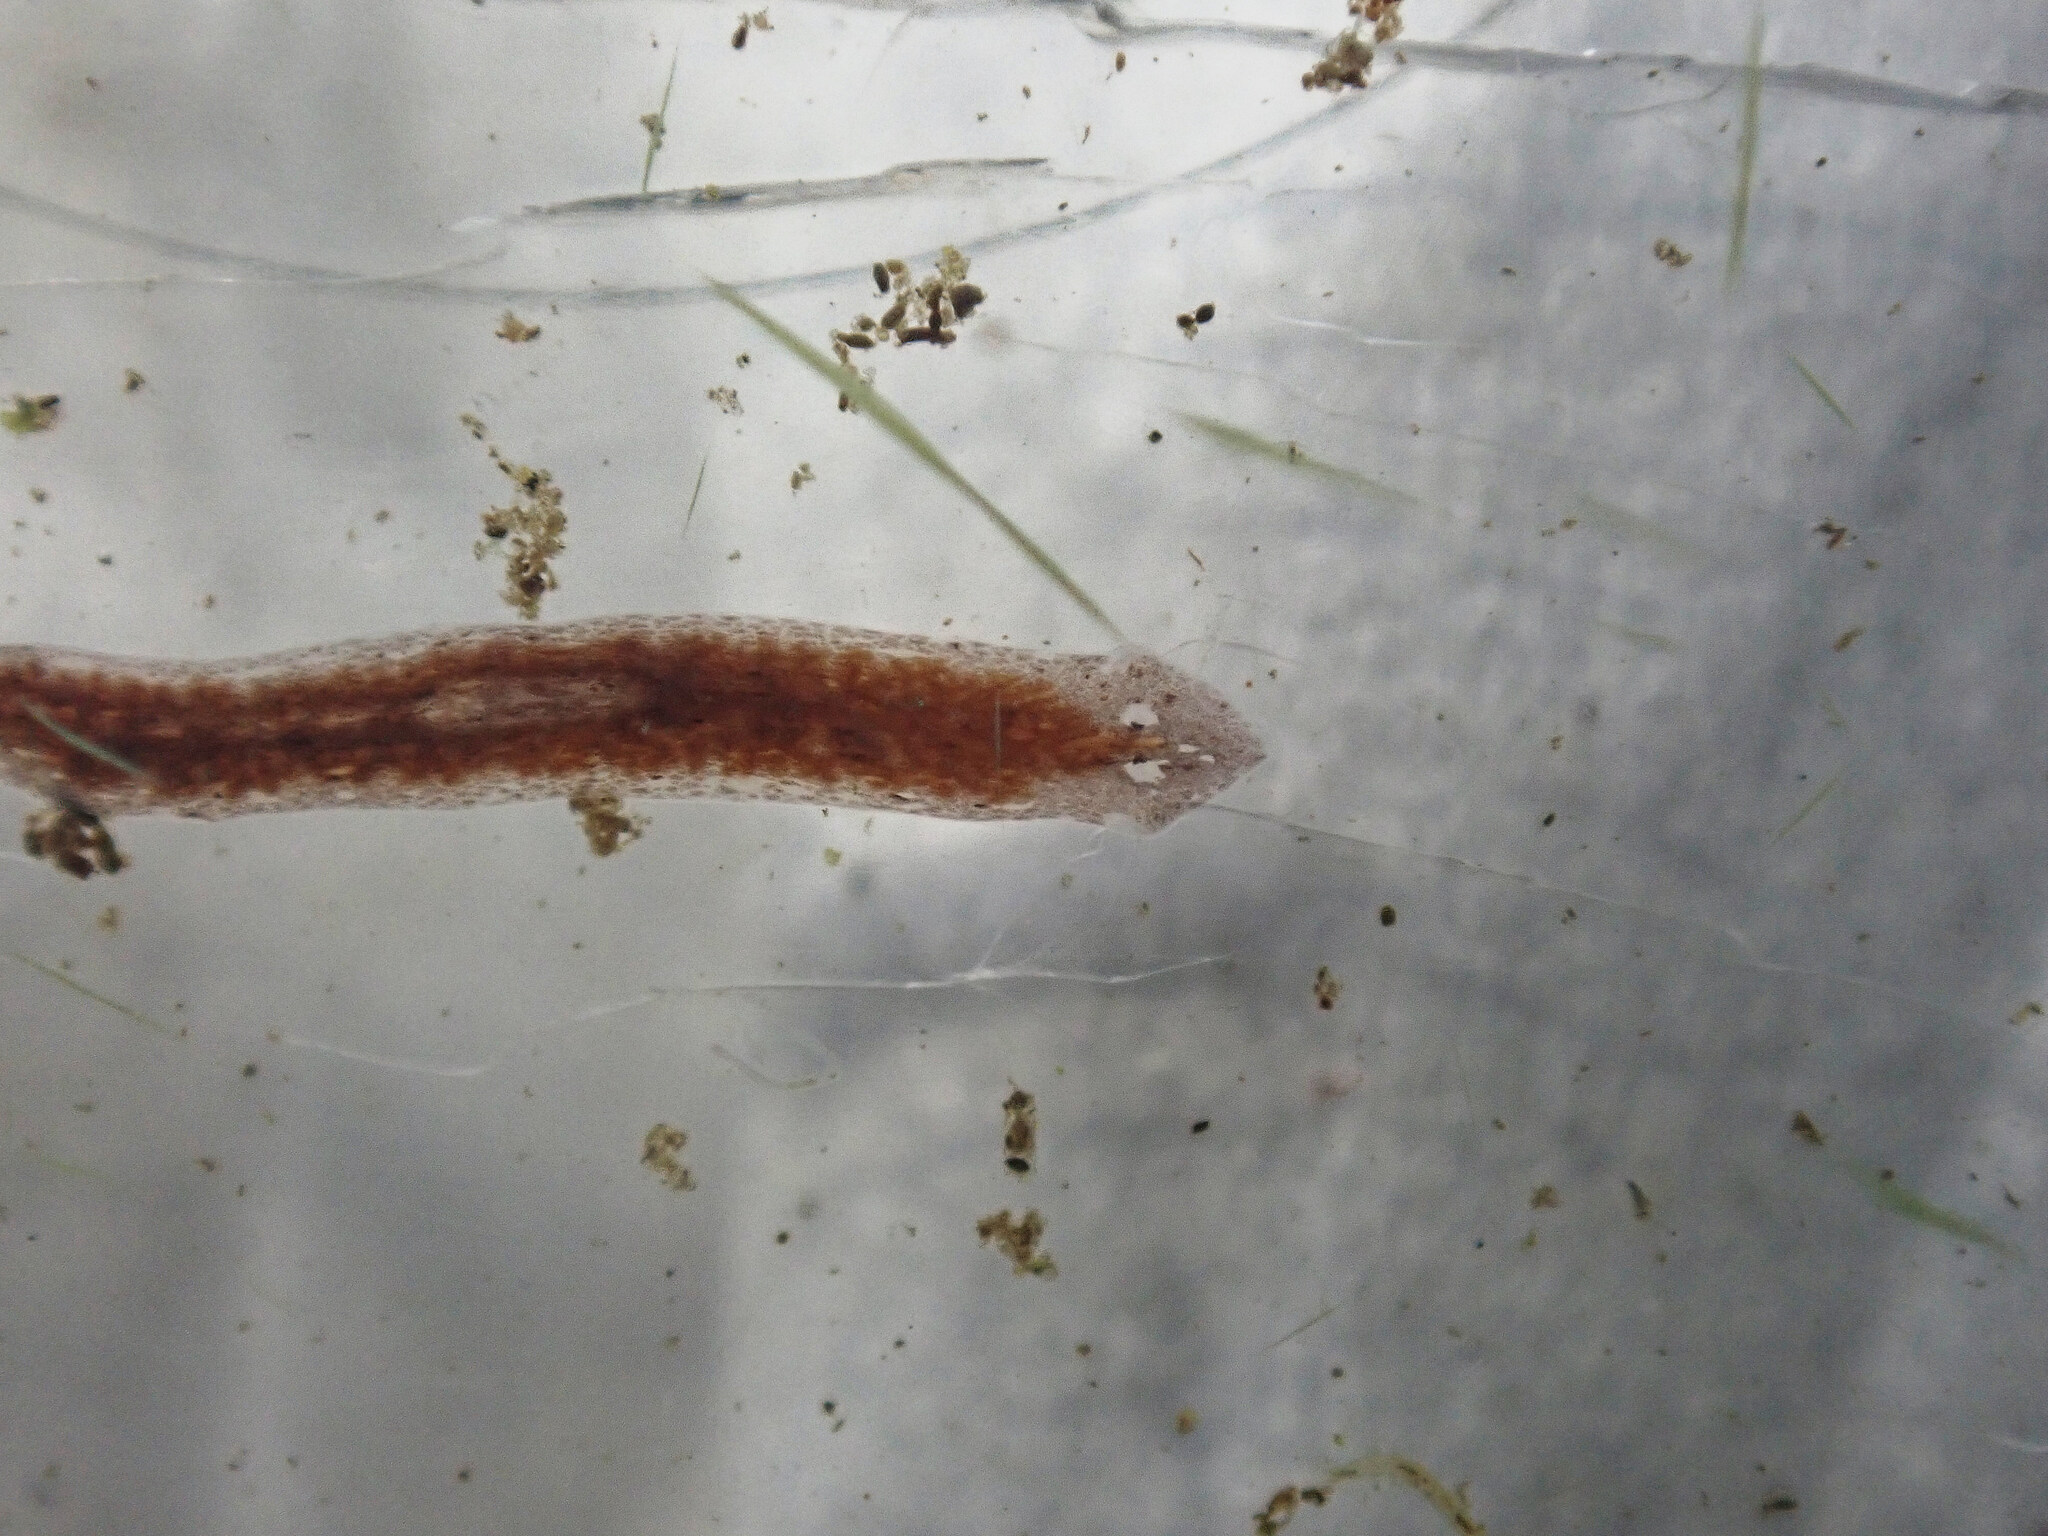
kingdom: Animalia
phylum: Platyhelminthes
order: Tricladida
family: Dugesiidae
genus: Girardia
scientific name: Girardia tigrina
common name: Brown planaria
